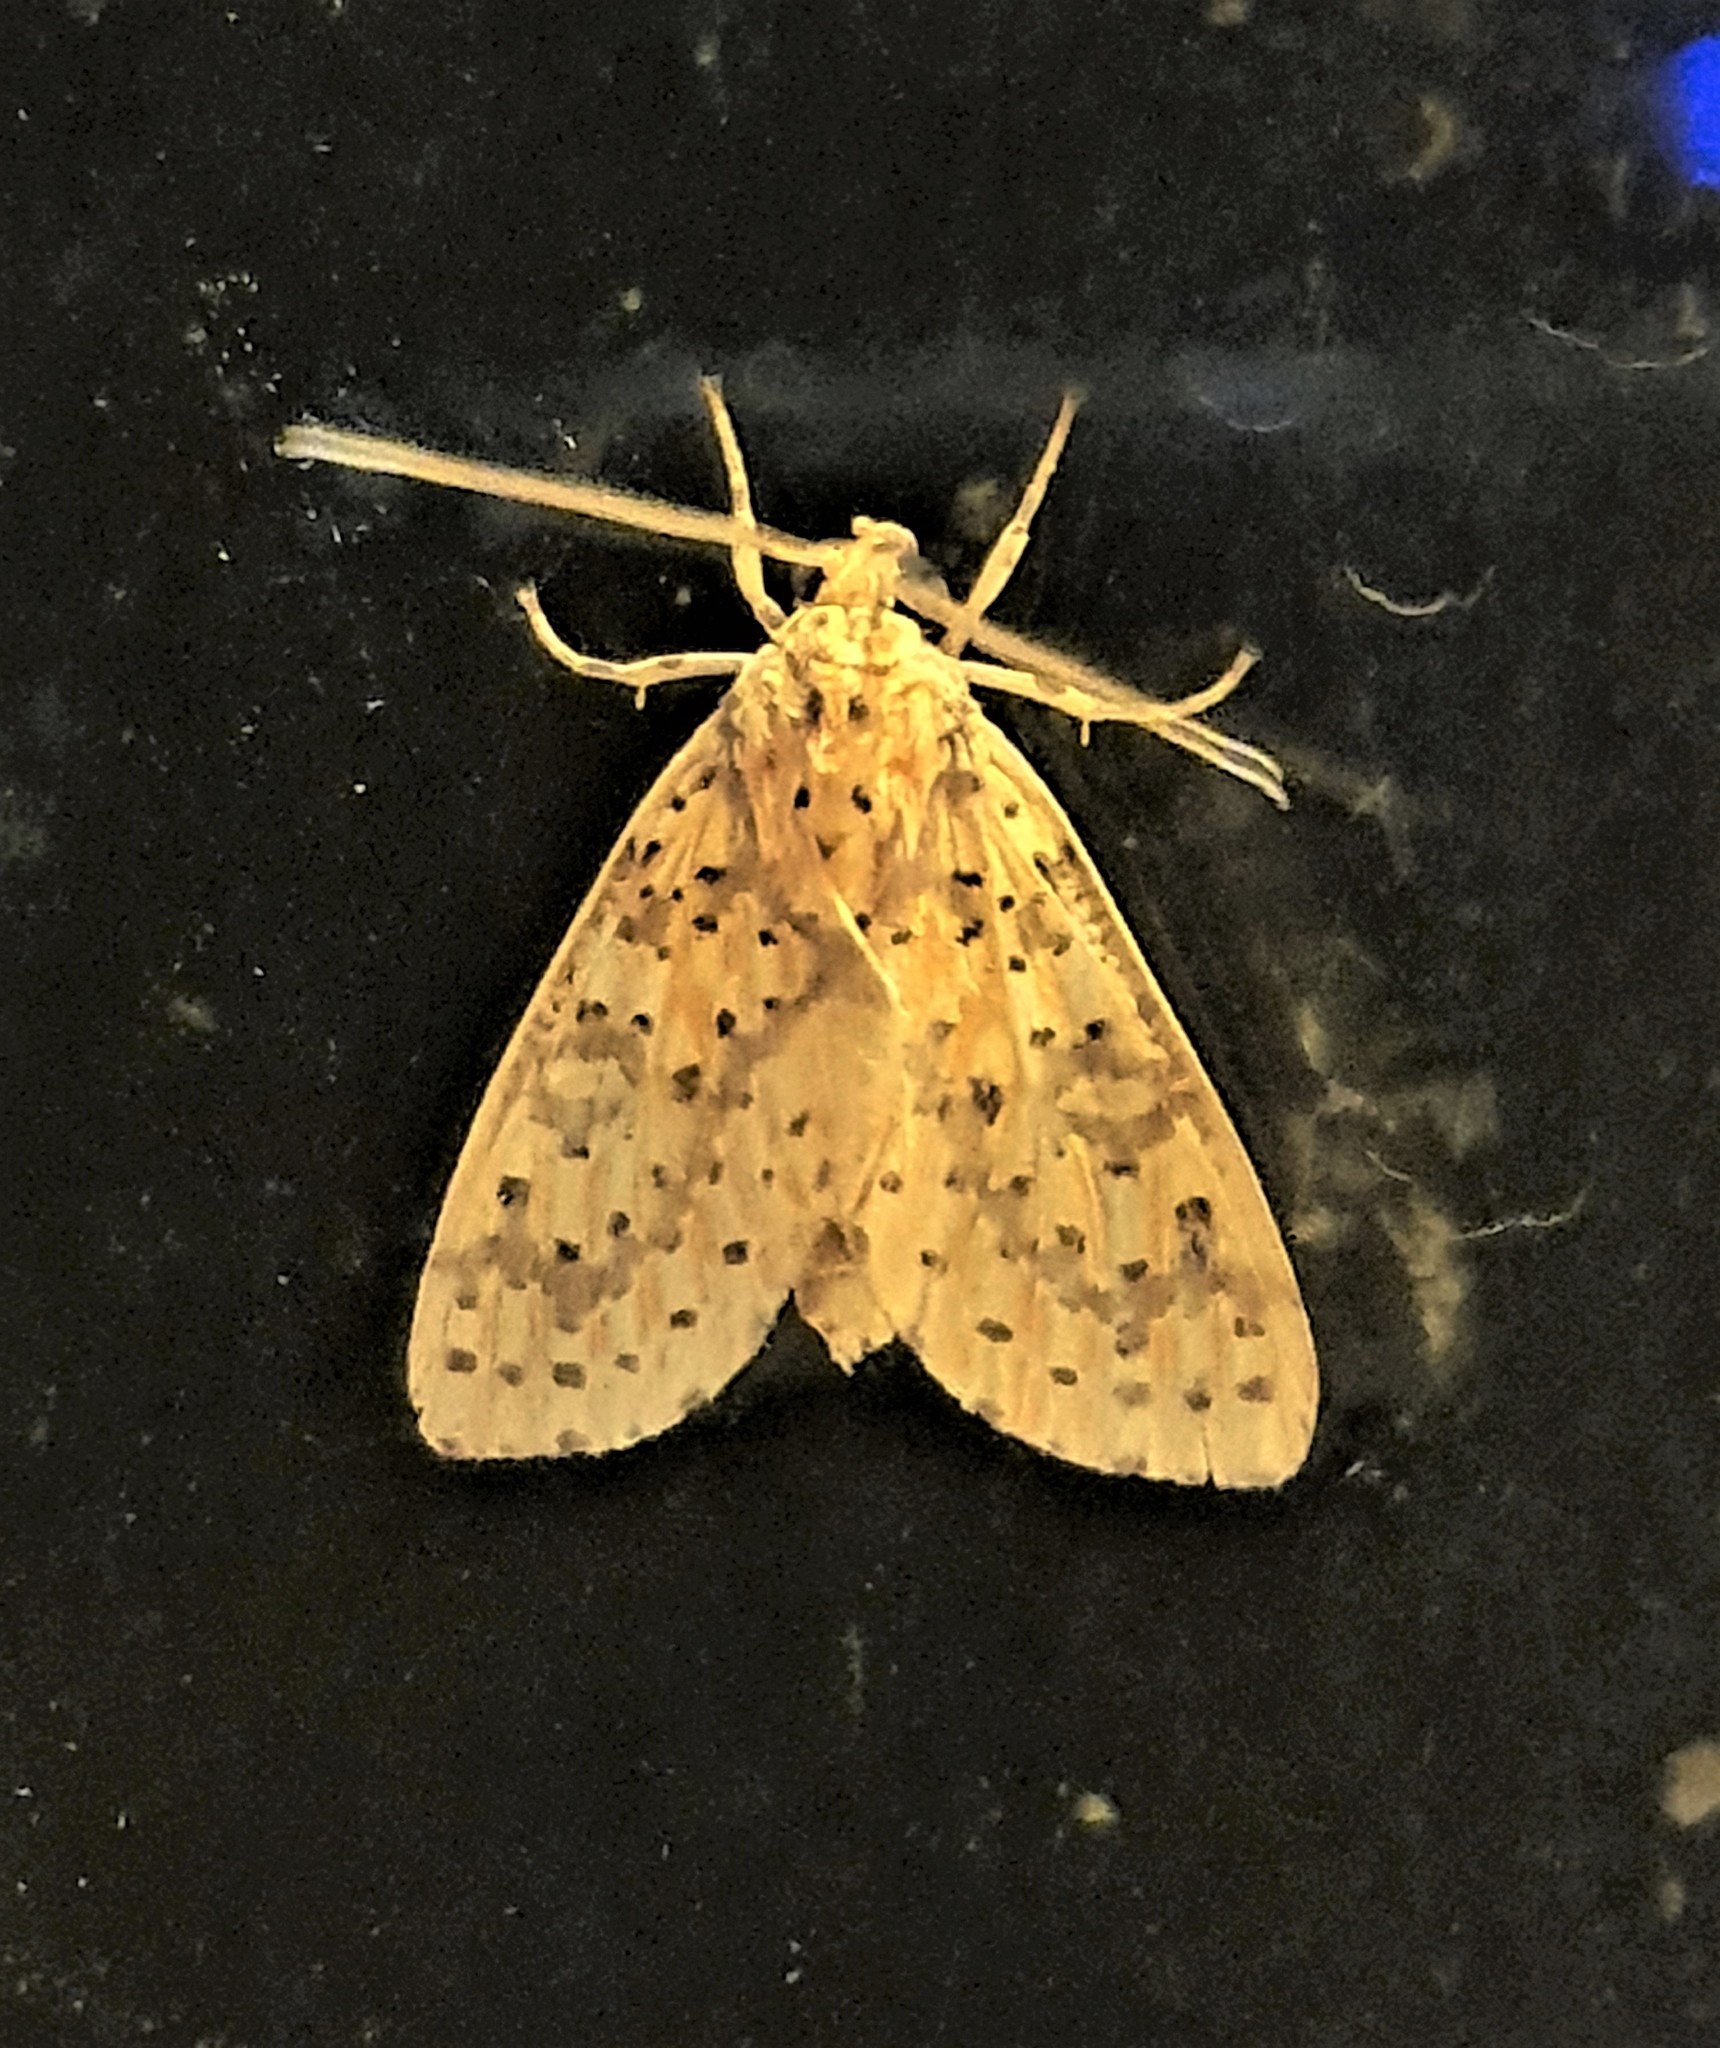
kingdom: Animalia
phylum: Arthropoda
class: Insecta
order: Lepidoptera
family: Erebidae
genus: Eriostepta
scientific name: Eriostepta fulvescens
